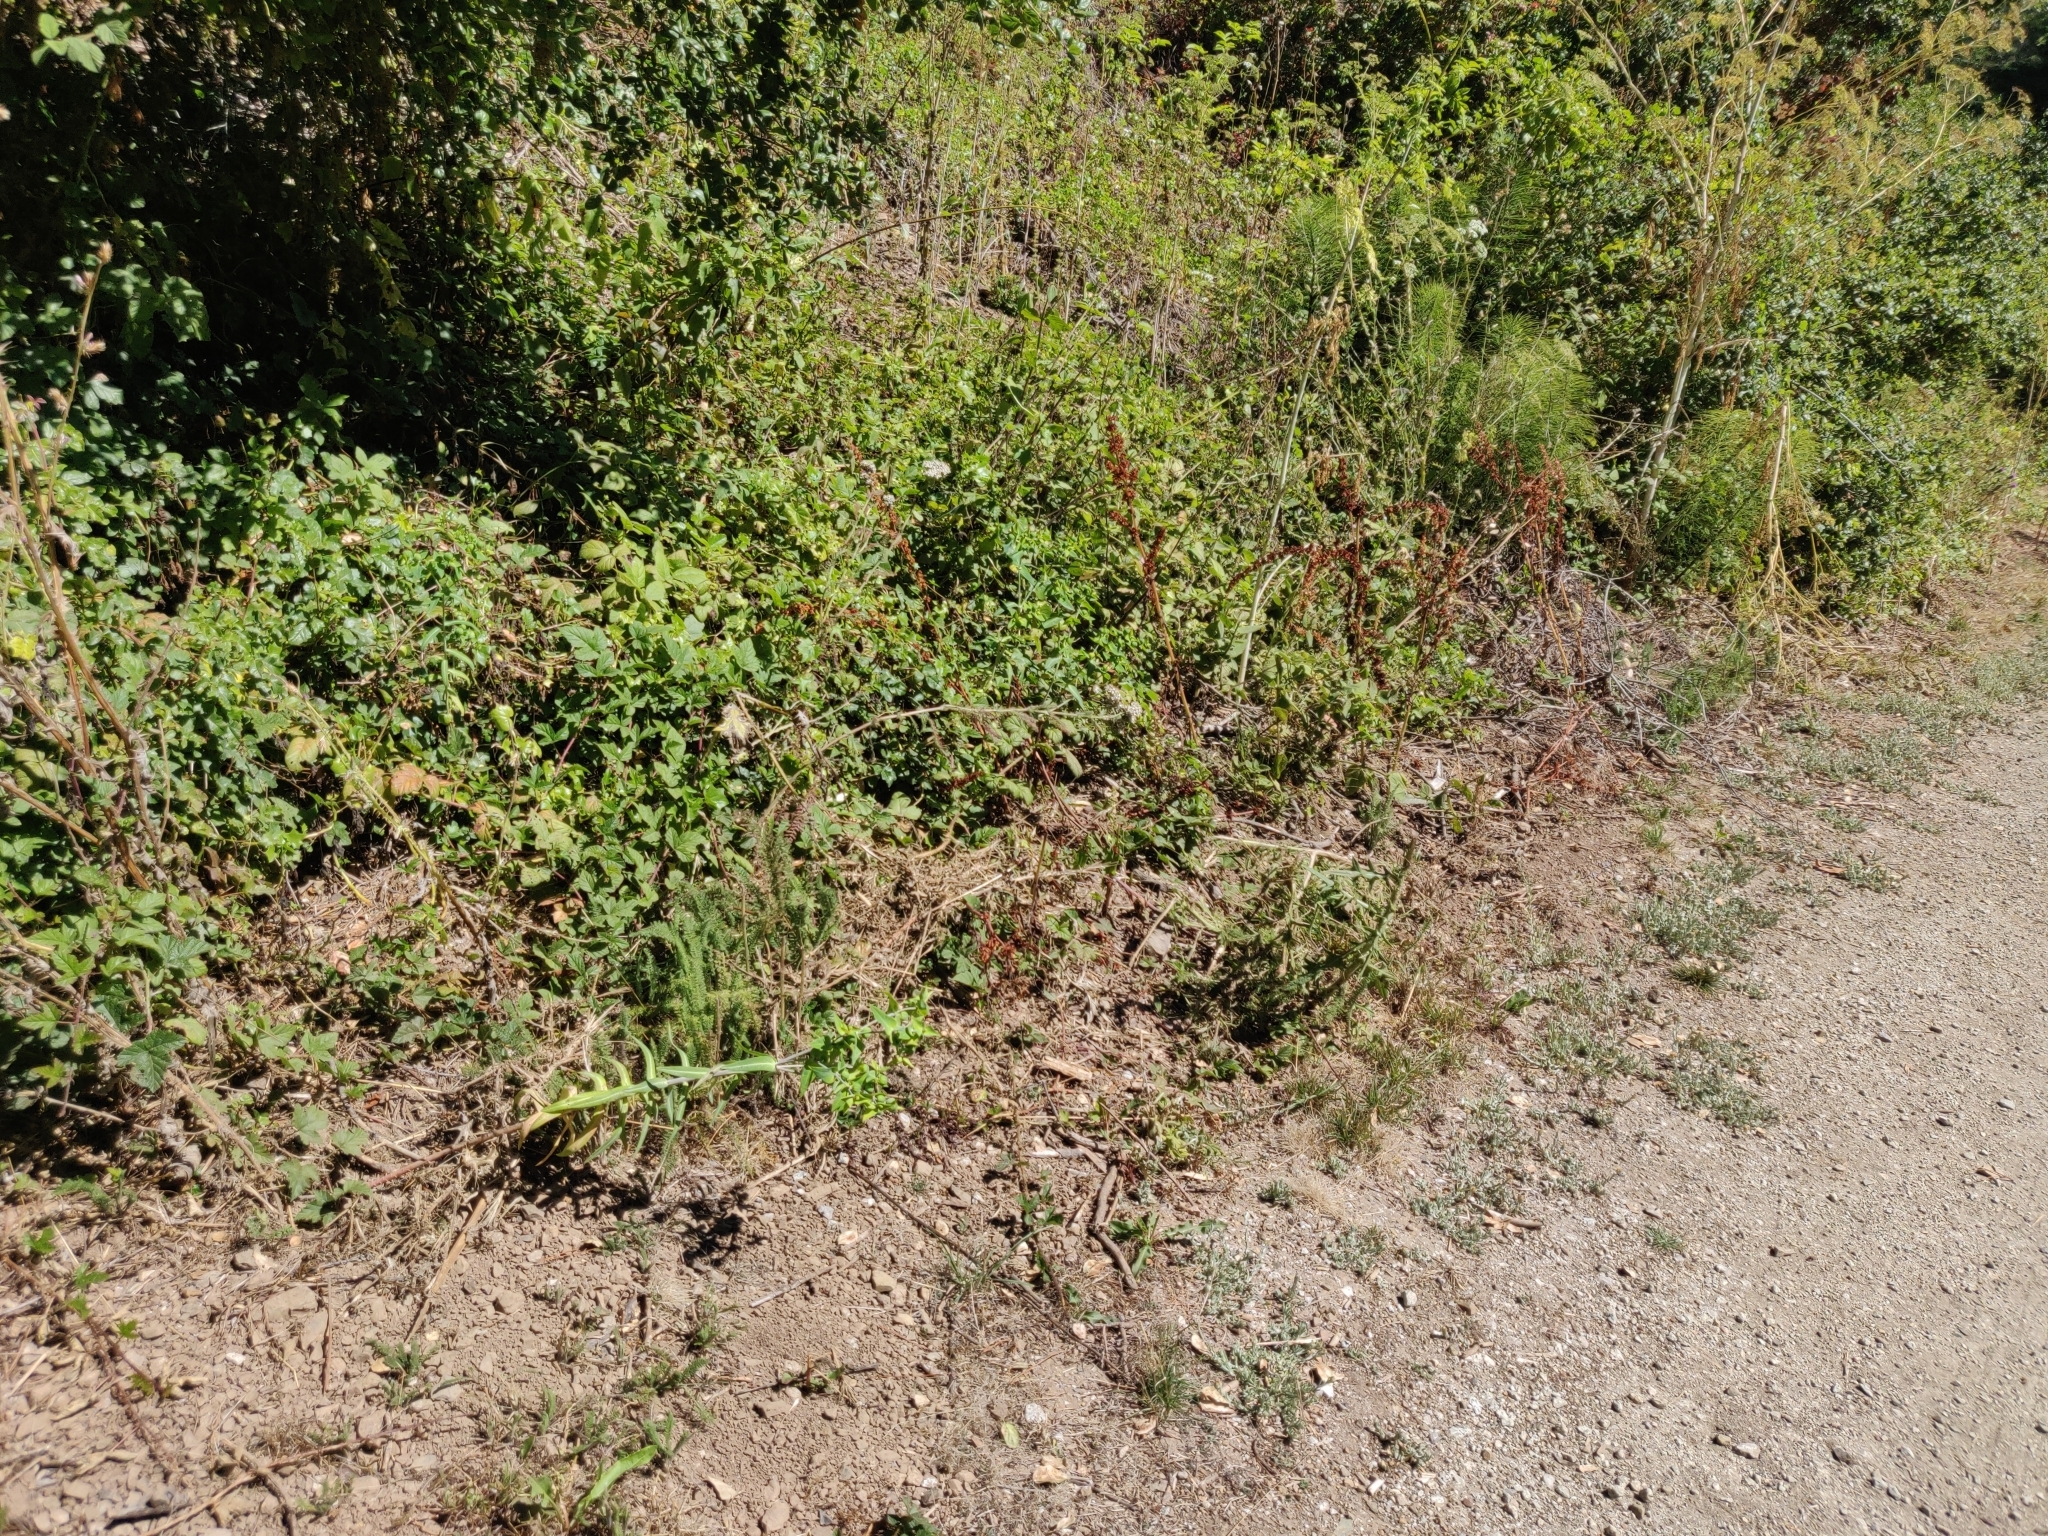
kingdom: Plantae
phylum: Tracheophyta
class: Magnoliopsida
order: Malpighiales
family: Euphorbiaceae
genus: Euphorbia
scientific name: Euphorbia lathyris
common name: Caper spurge
